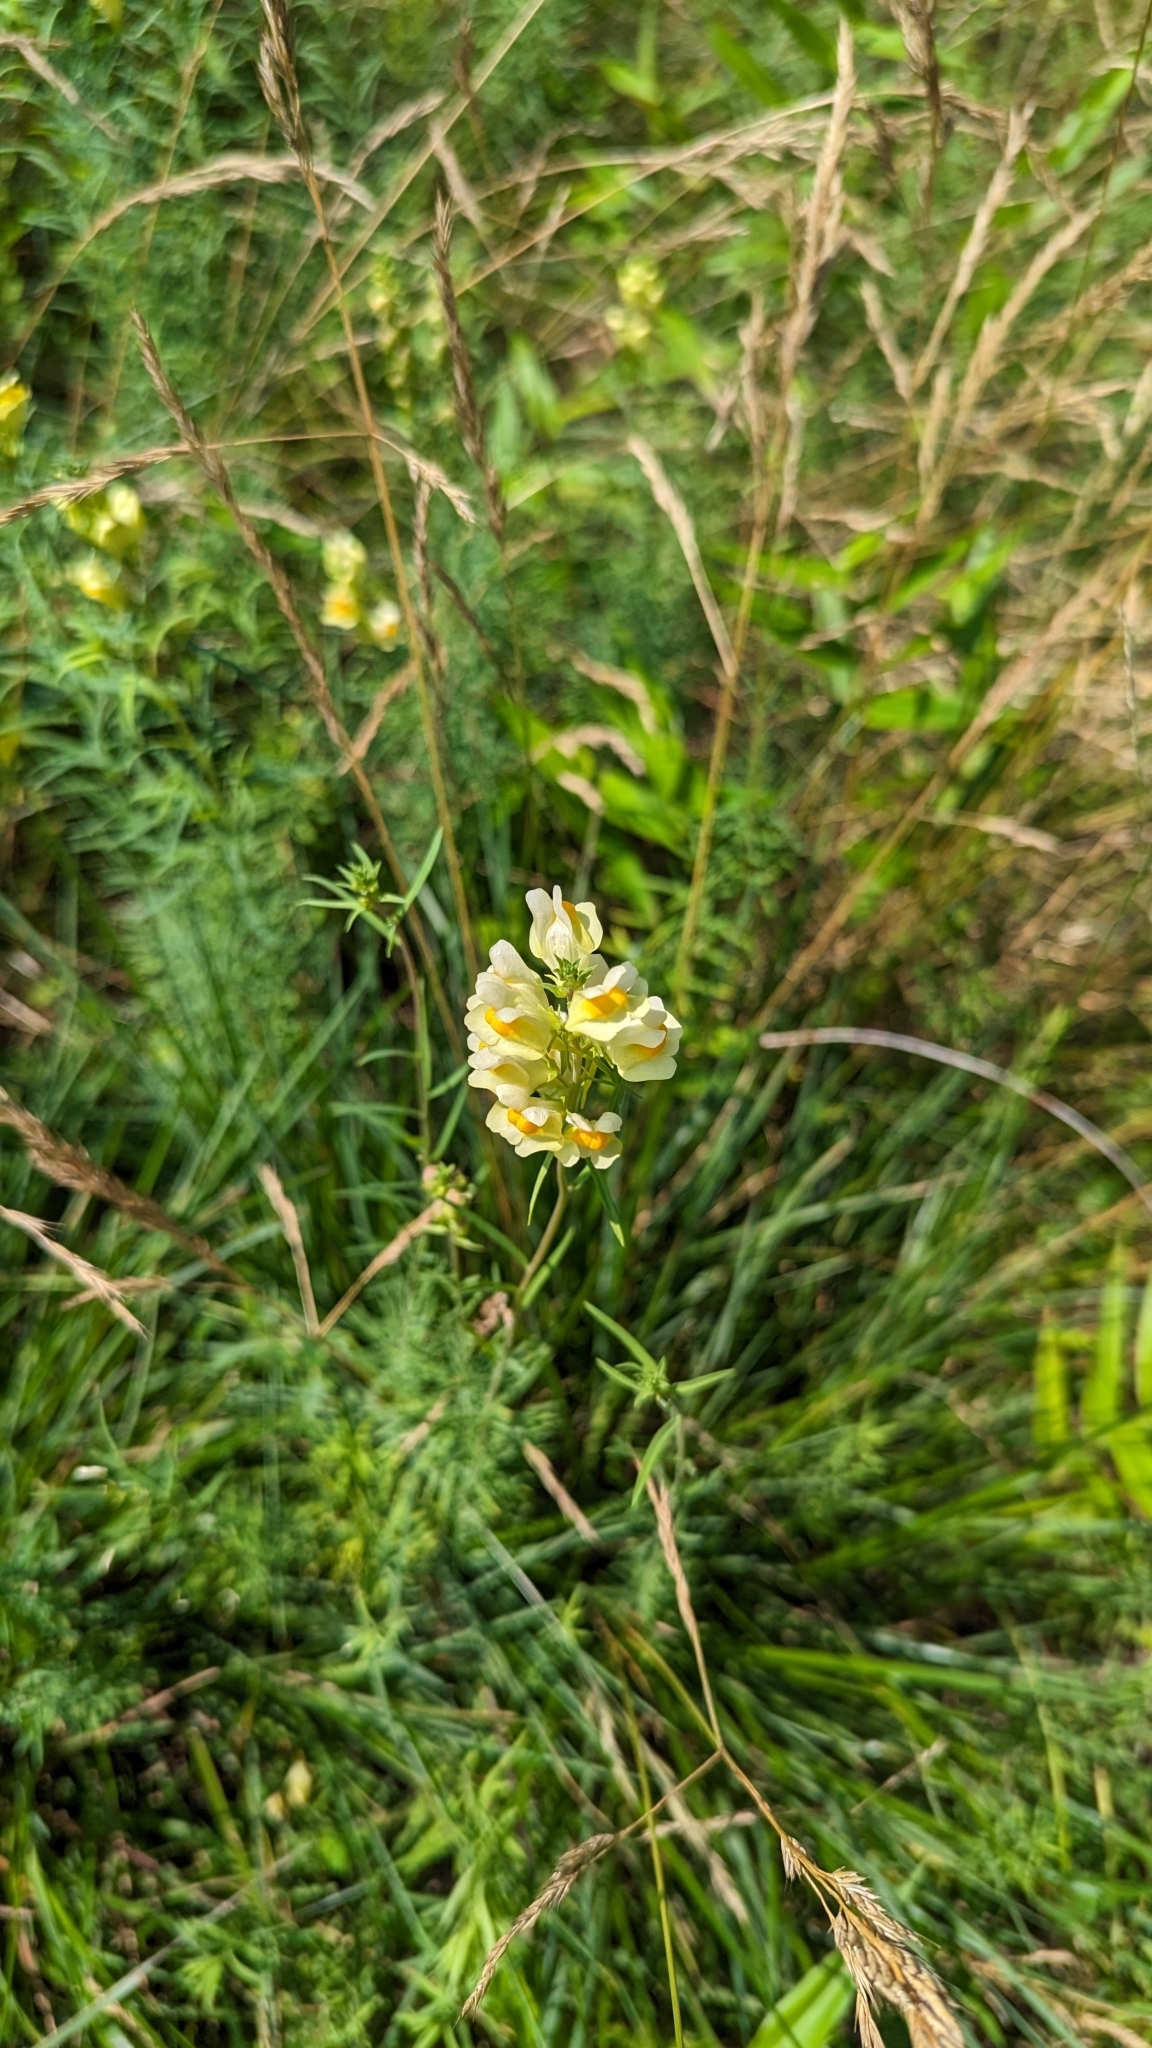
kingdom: Plantae
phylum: Tracheophyta
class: Magnoliopsida
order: Lamiales
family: Plantaginaceae
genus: Linaria
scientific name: Linaria vulgaris
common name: Butter and eggs
